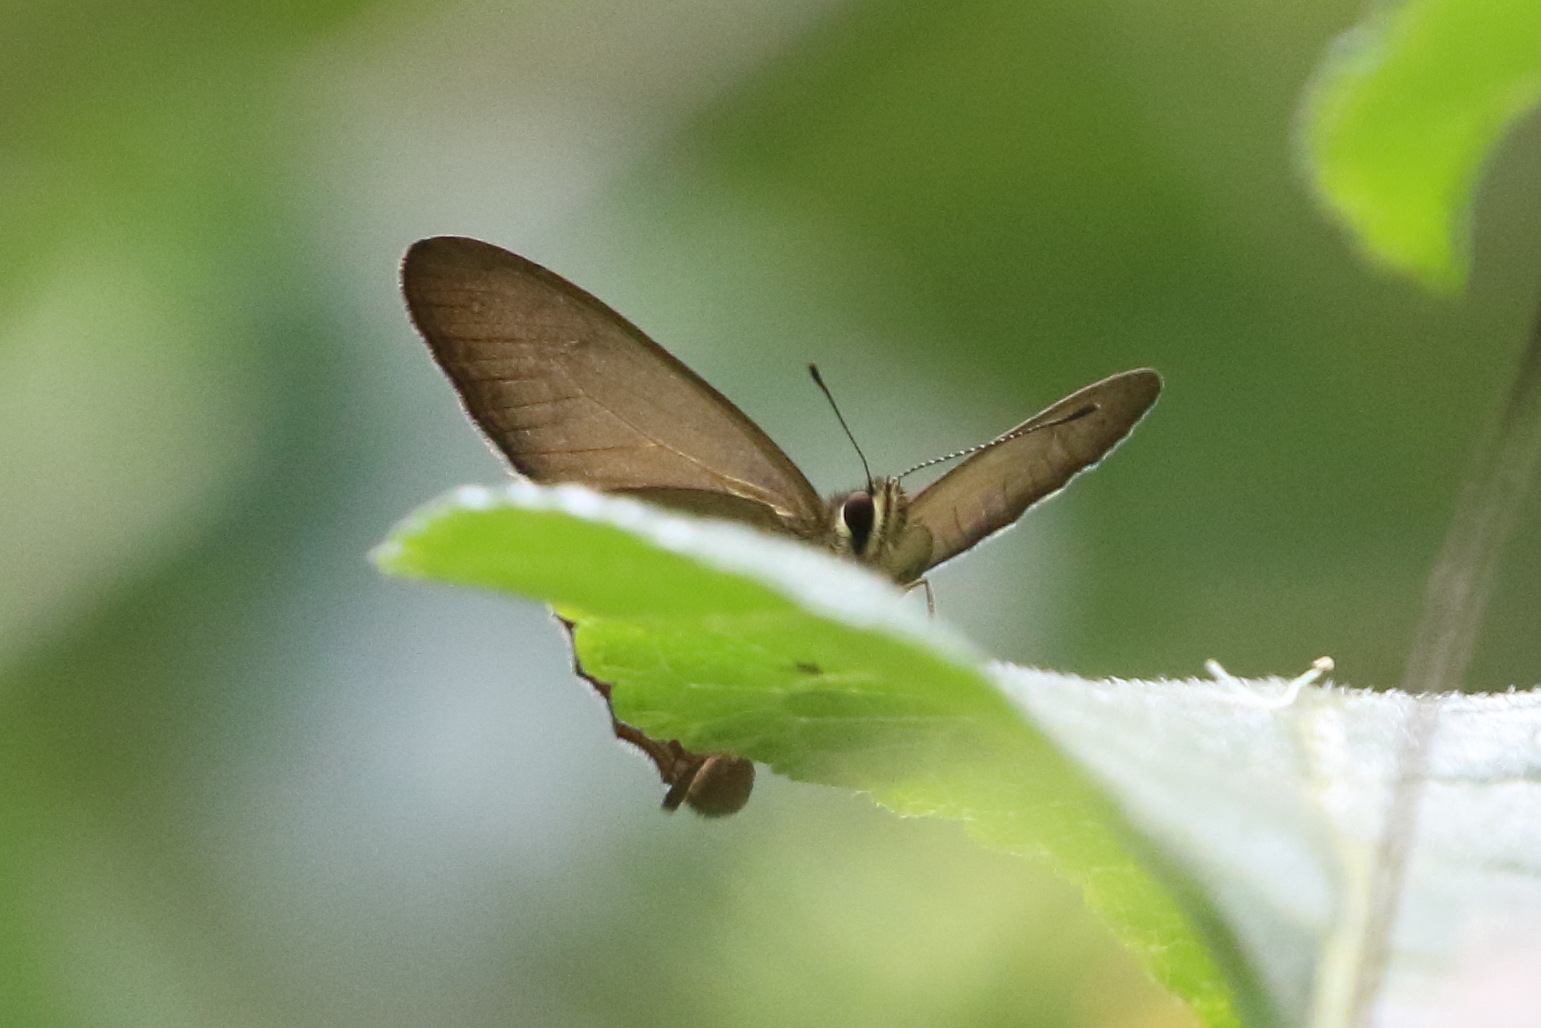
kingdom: Animalia
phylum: Arthropoda
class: Insecta
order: Lepidoptera
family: Nymphalidae
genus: Hypocysta
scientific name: Hypocysta metirius
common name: Brown ringlet
